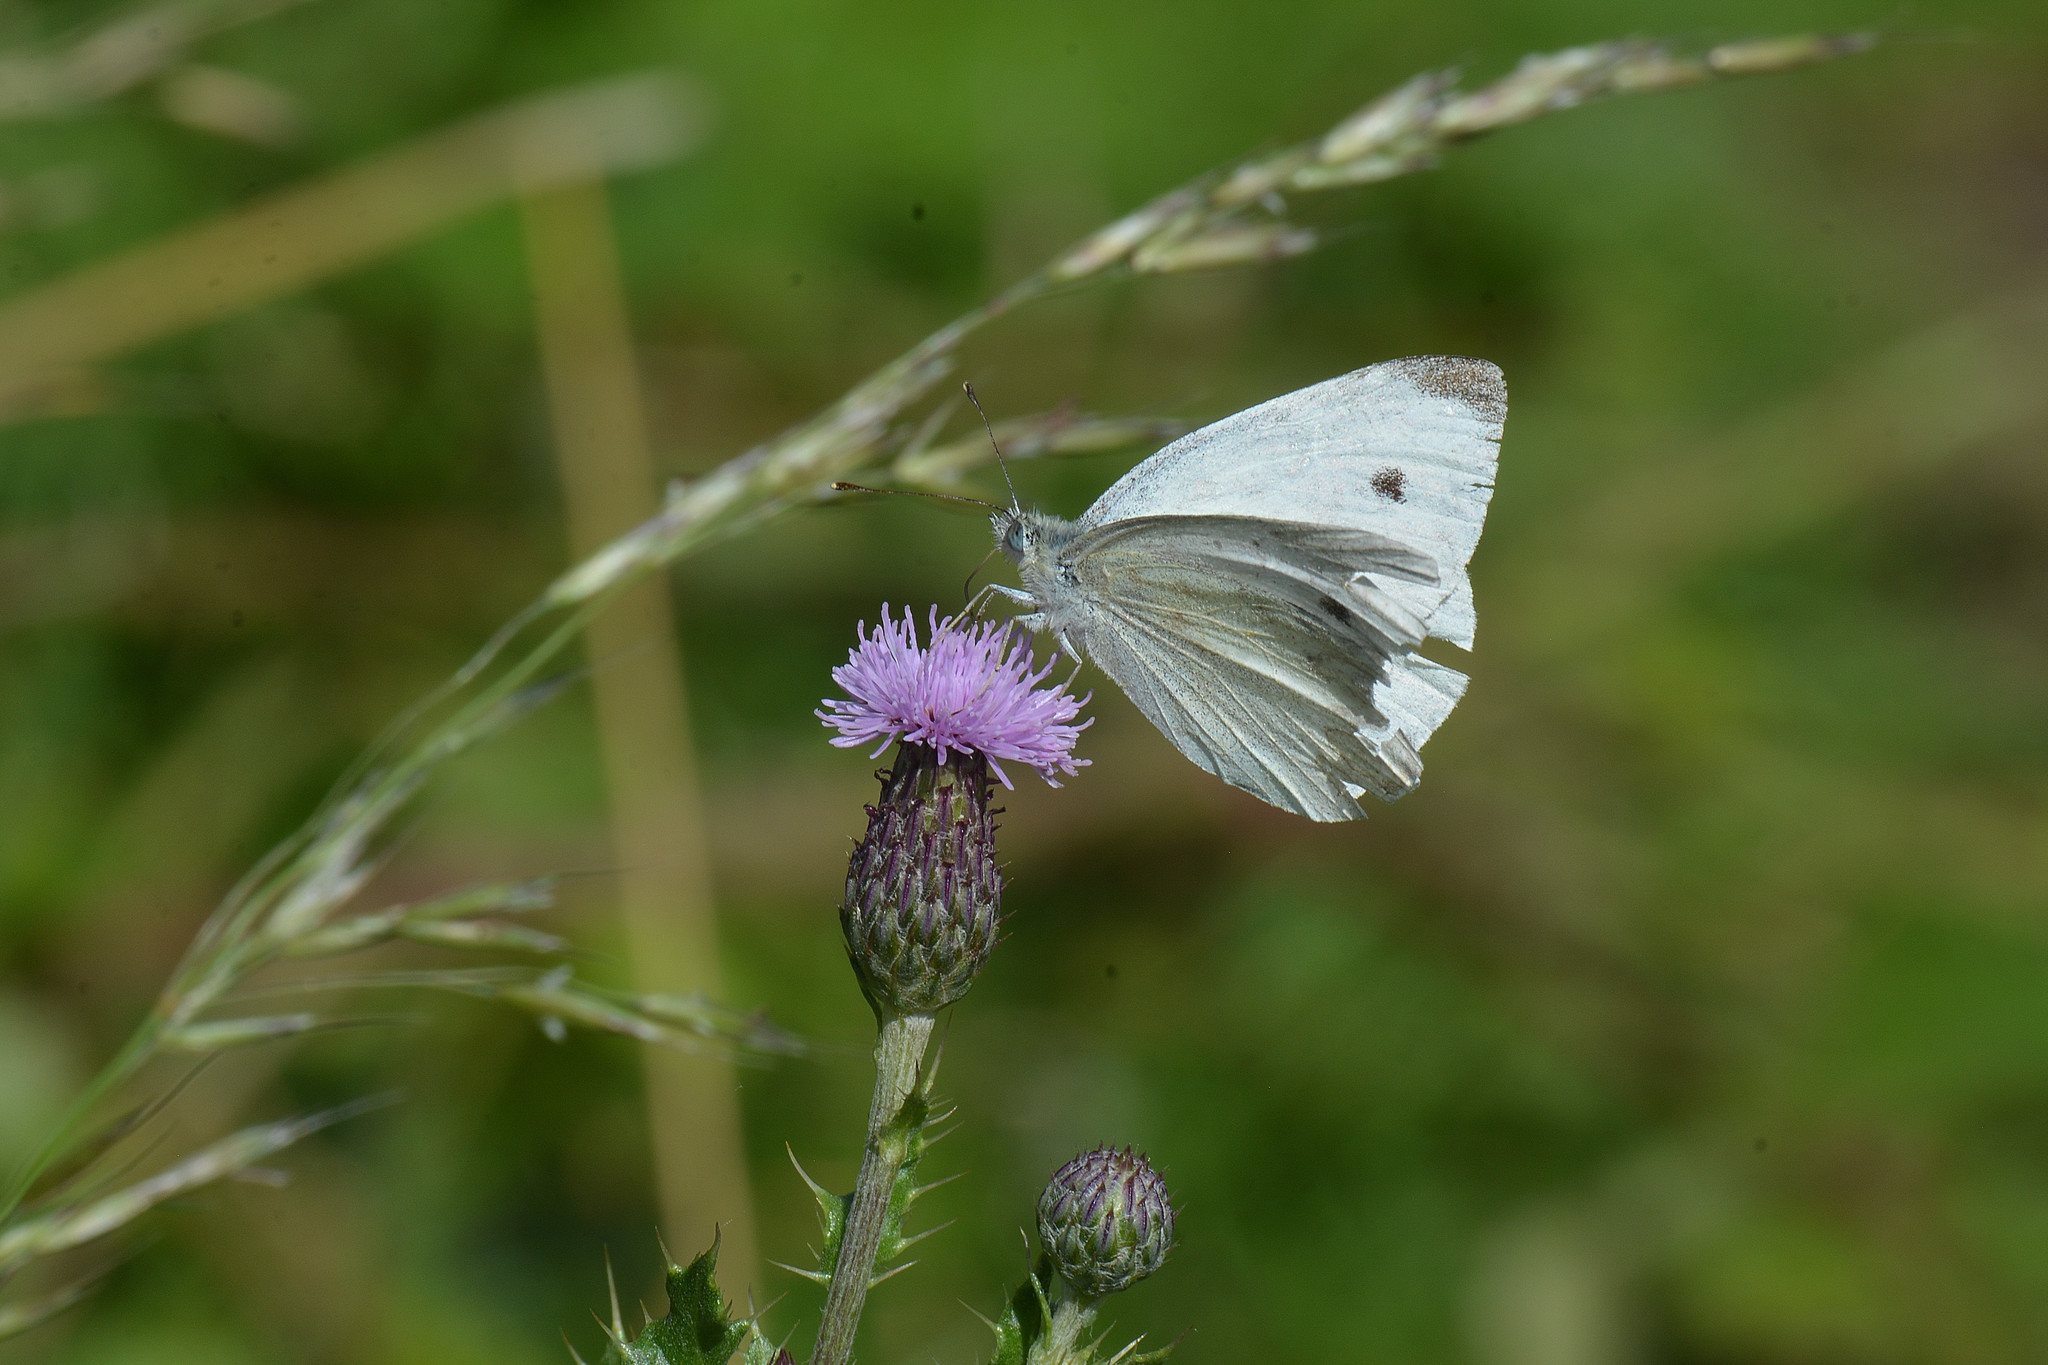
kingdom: Animalia
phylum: Arthropoda
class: Insecta
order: Lepidoptera
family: Pieridae
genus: Pieris
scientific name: Pieris rapae
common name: Small white
